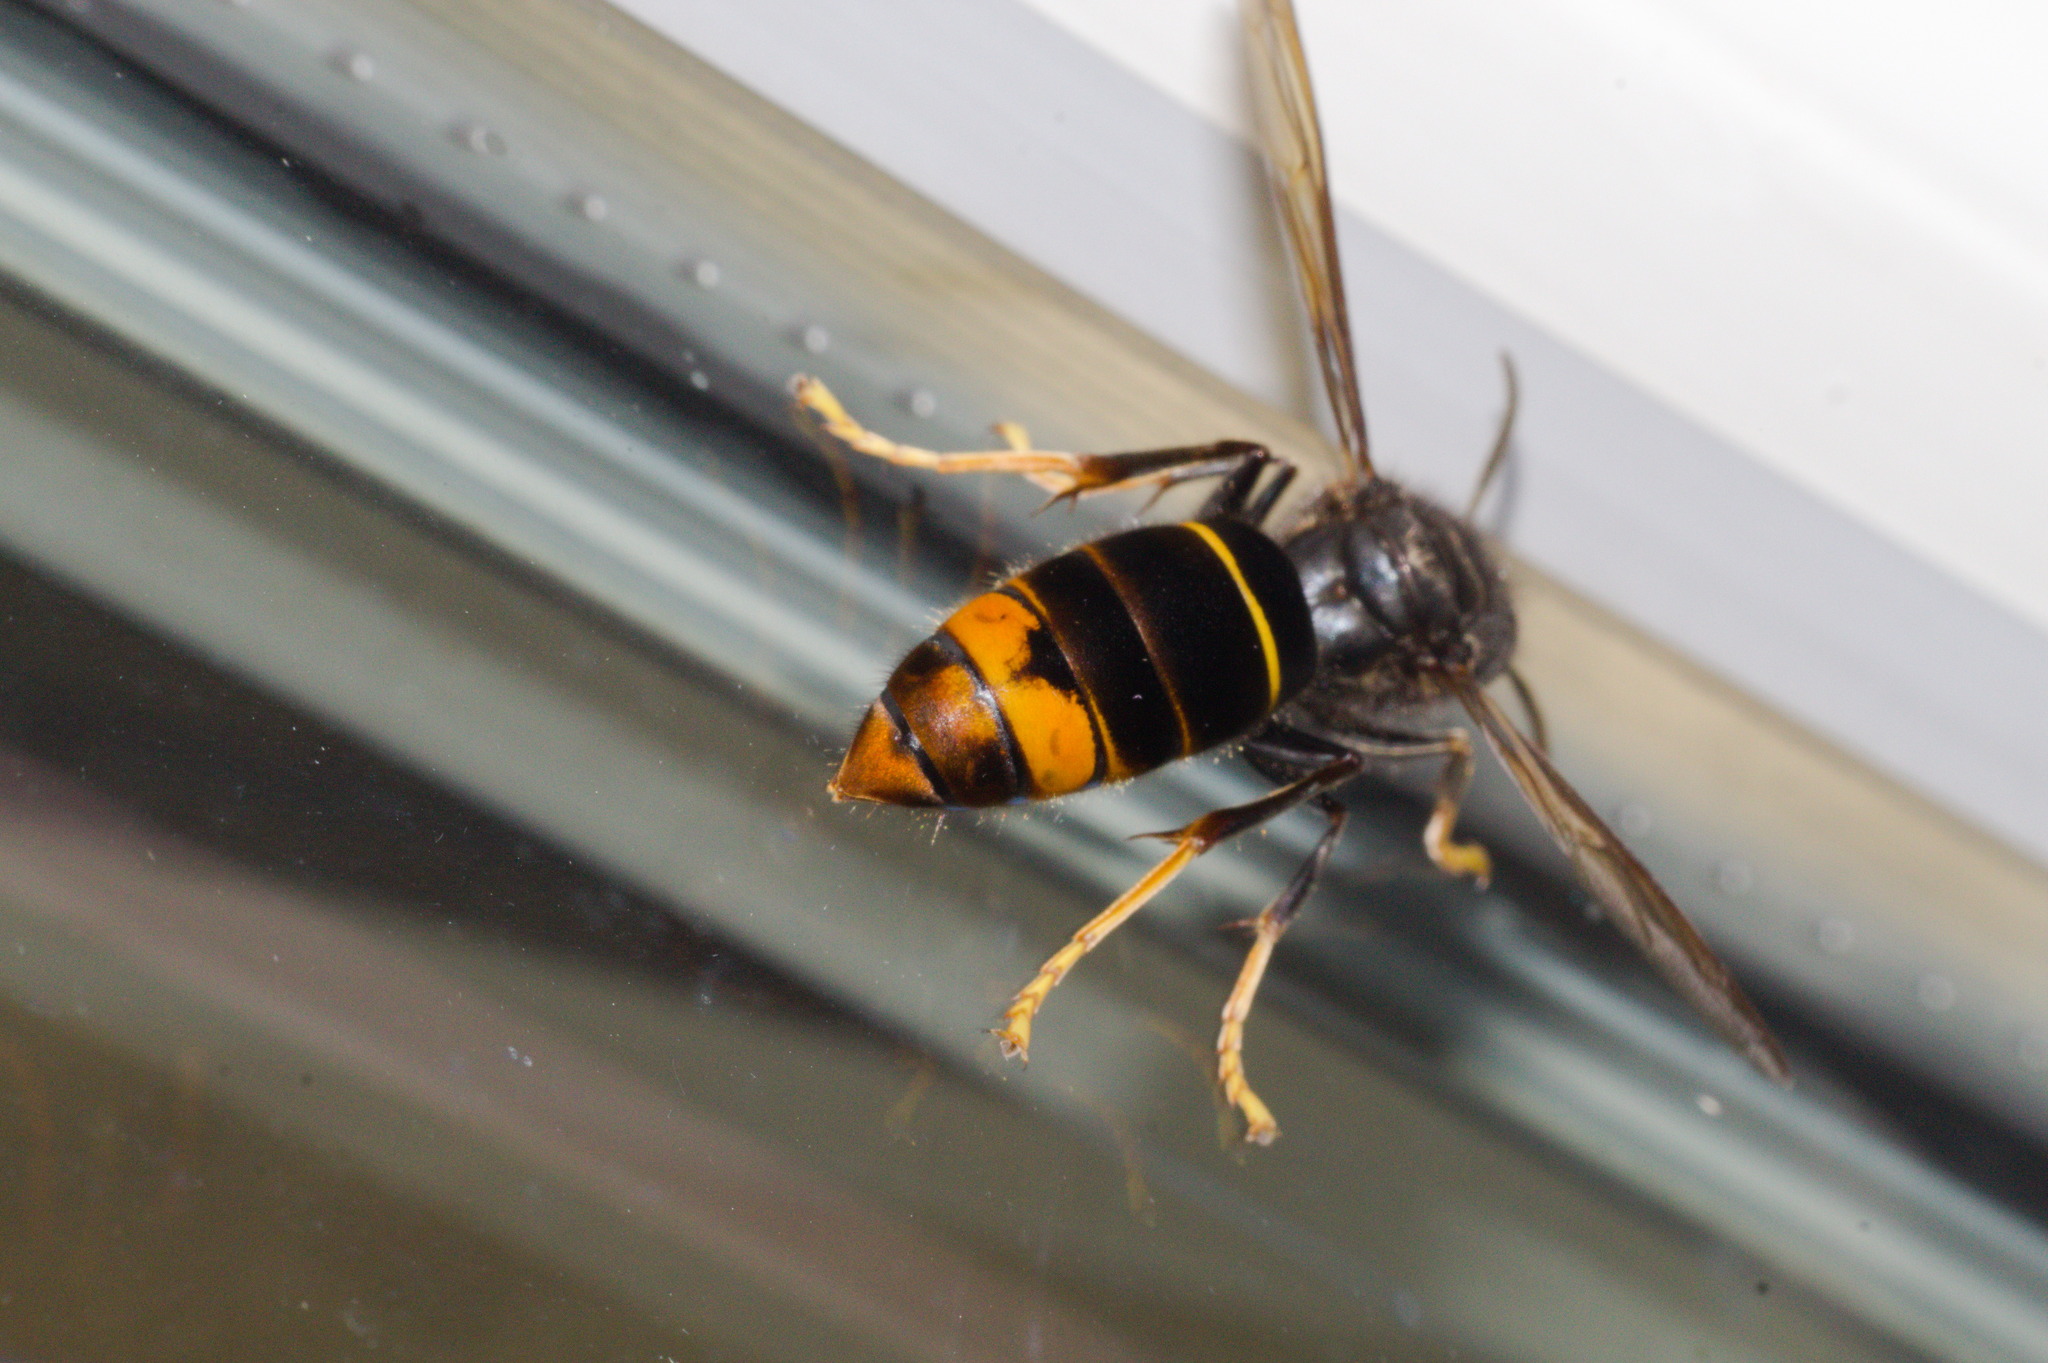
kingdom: Animalia
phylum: Arthropoda
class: Insecta
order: Hymenoptera
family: Vespidae
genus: Vespa
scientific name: Vespa velutina
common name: Asian hornet
